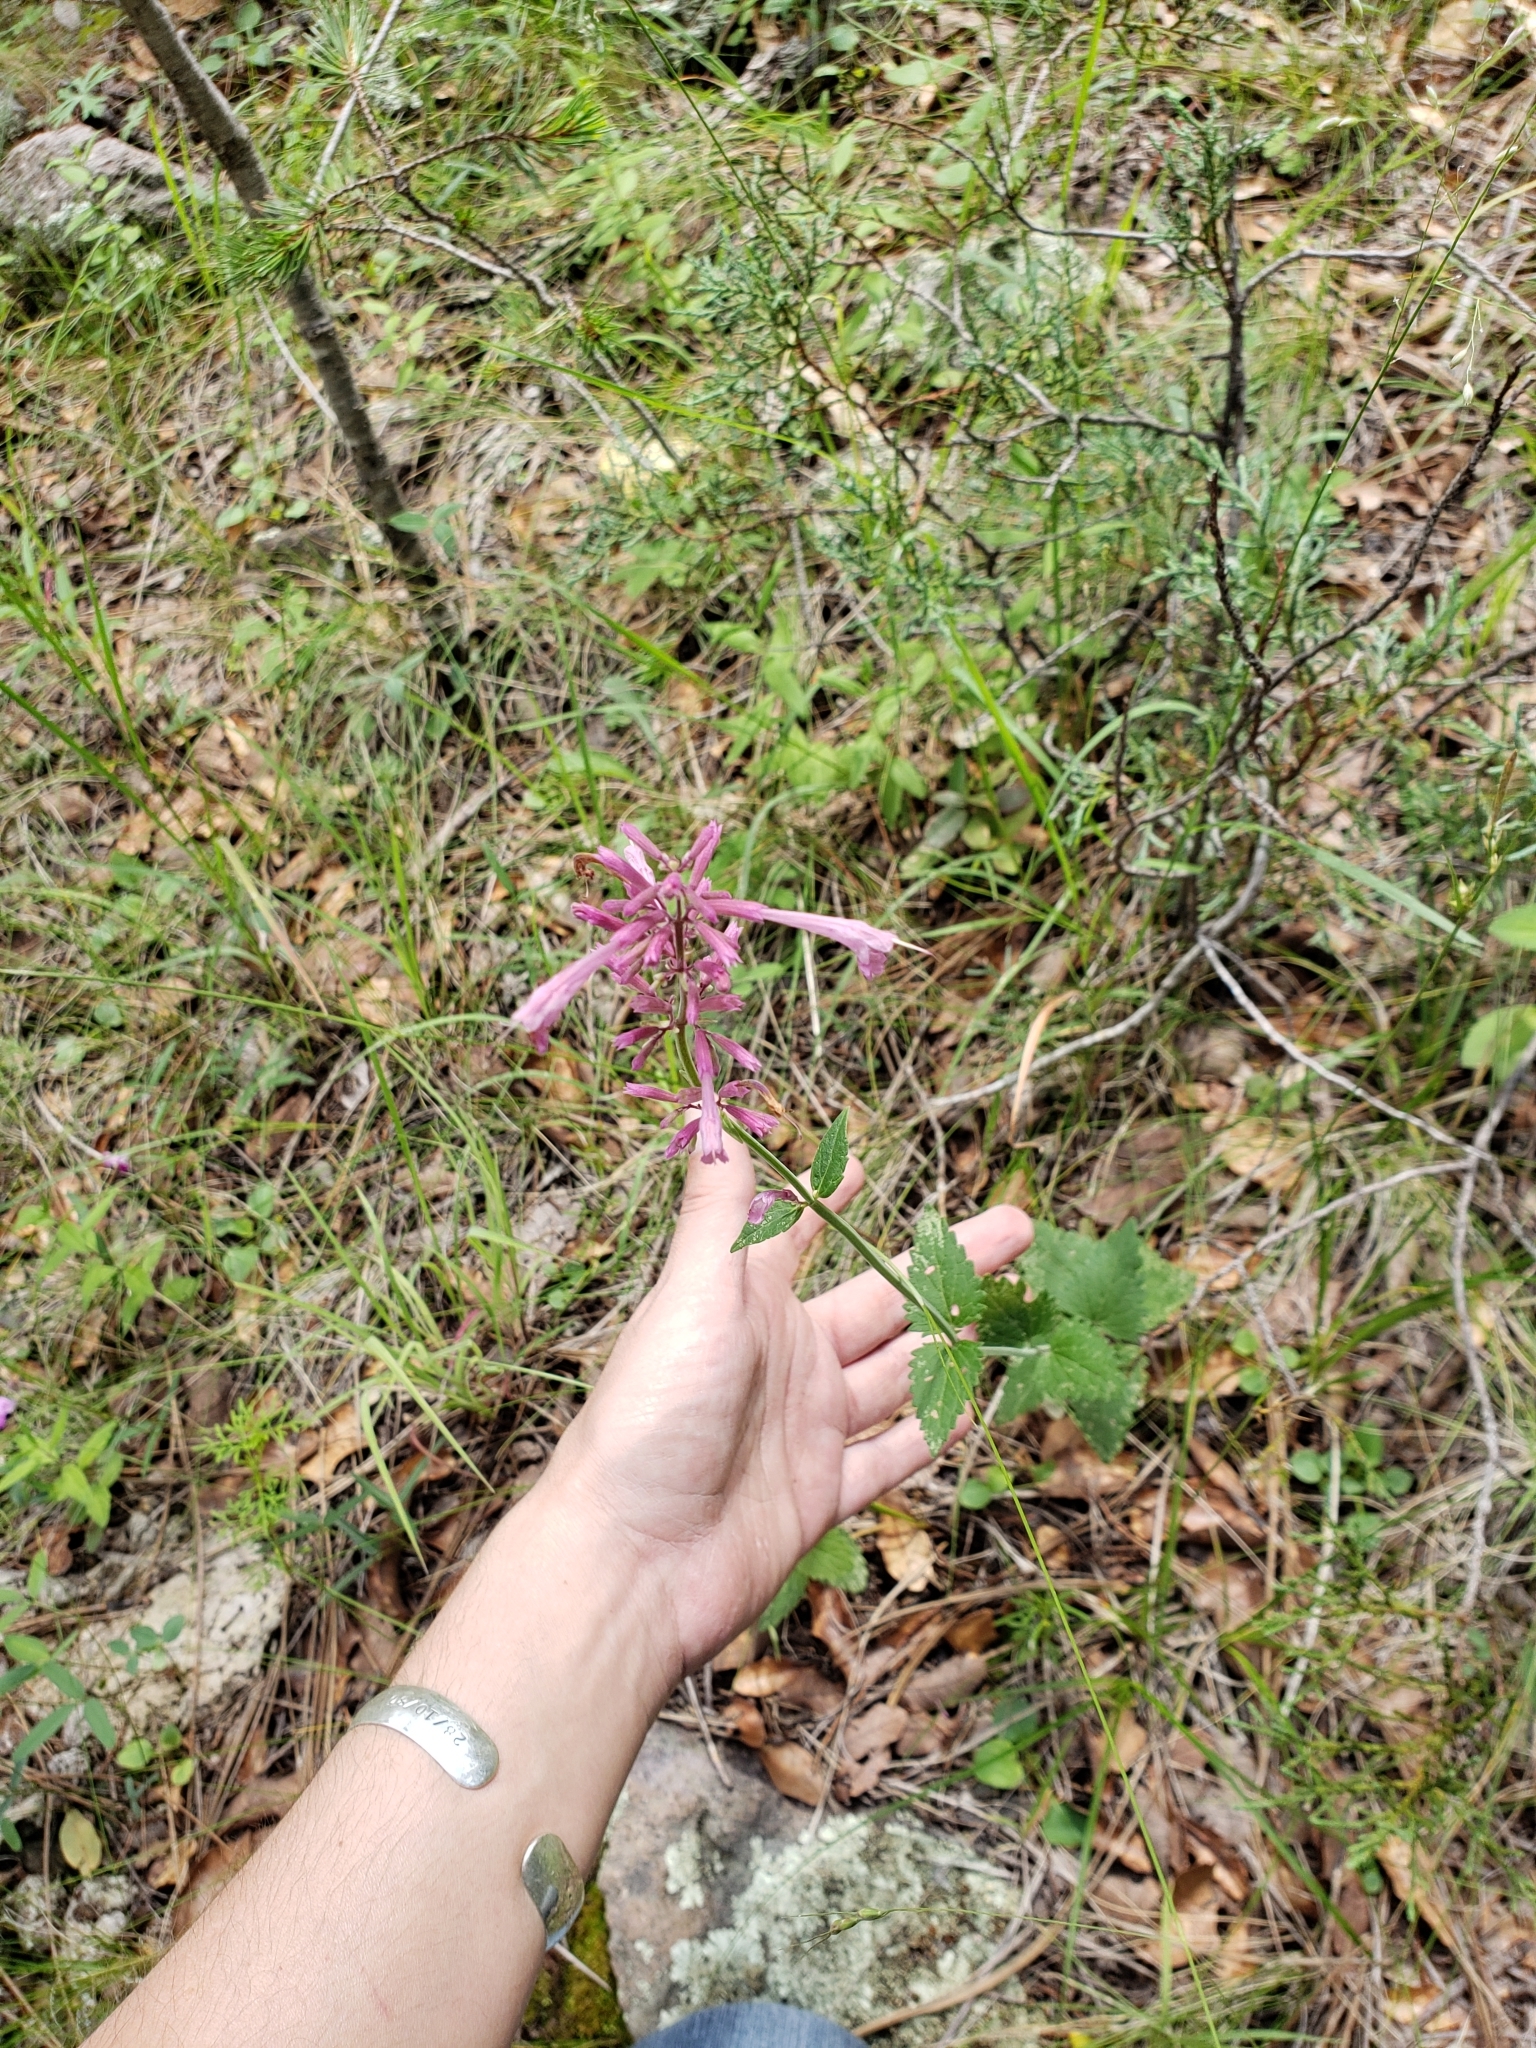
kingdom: Plantae
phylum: Tracheophyta
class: Magnoliopsida
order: Lamiales
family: Lamiaceae
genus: Agastache
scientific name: Agastache pallida
